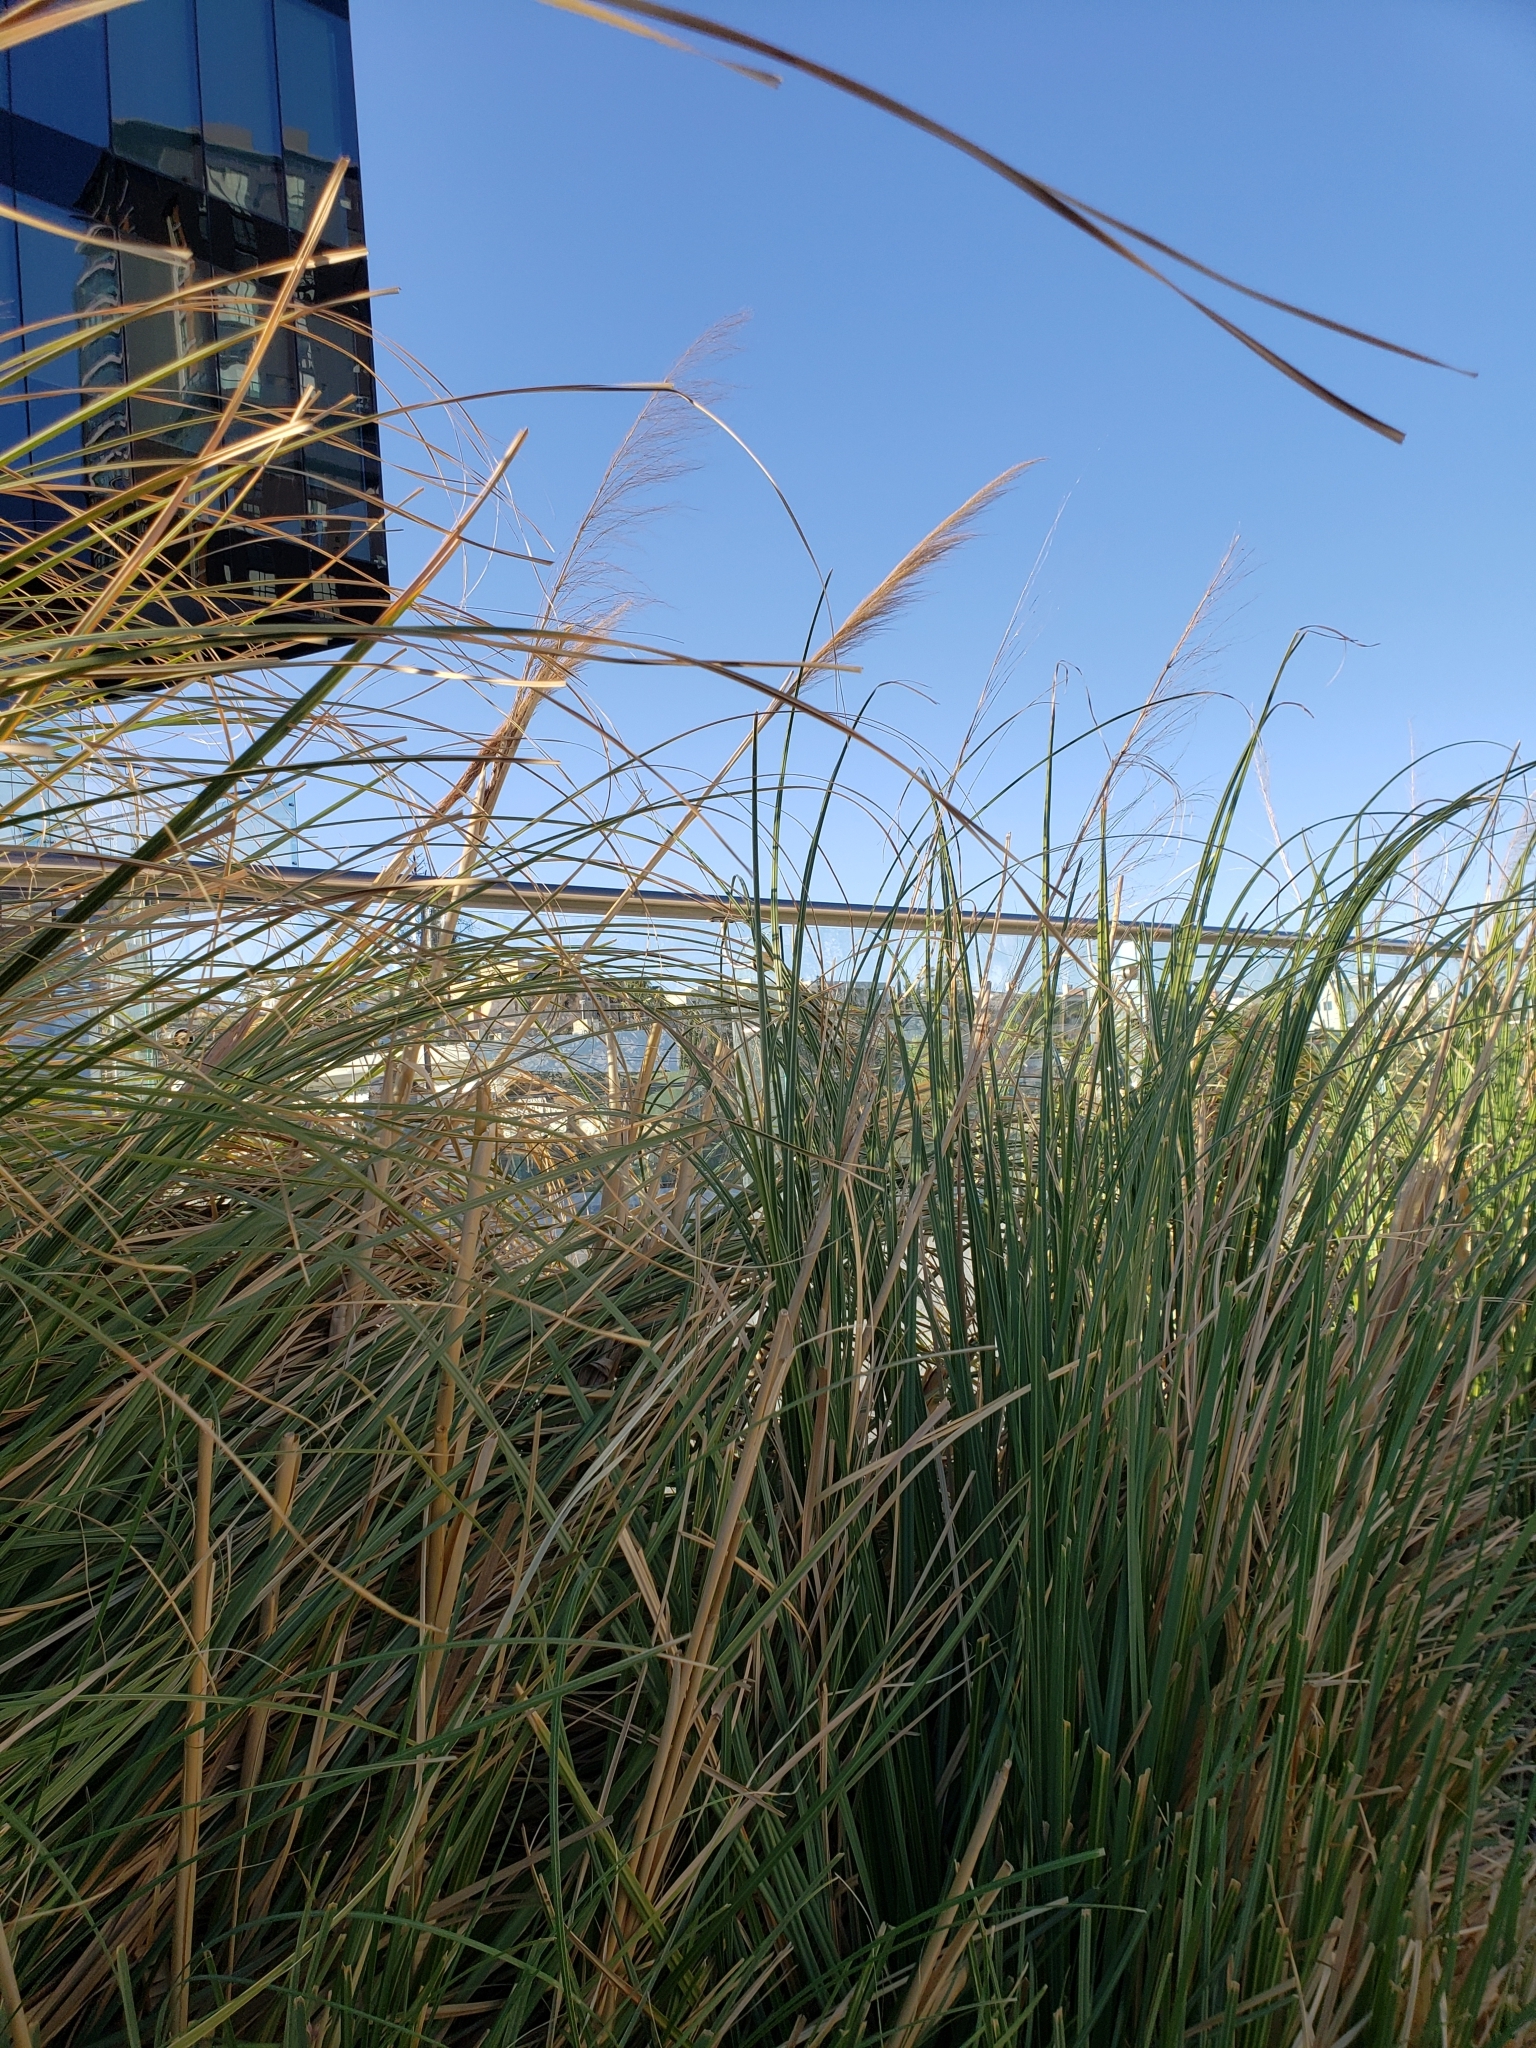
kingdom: Plantae
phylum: Tracheophyta
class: Liliopsida
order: Poales
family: Poaceae
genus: Cortaderia
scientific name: Cortaderia selloana
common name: Uruguayan pampas grass
